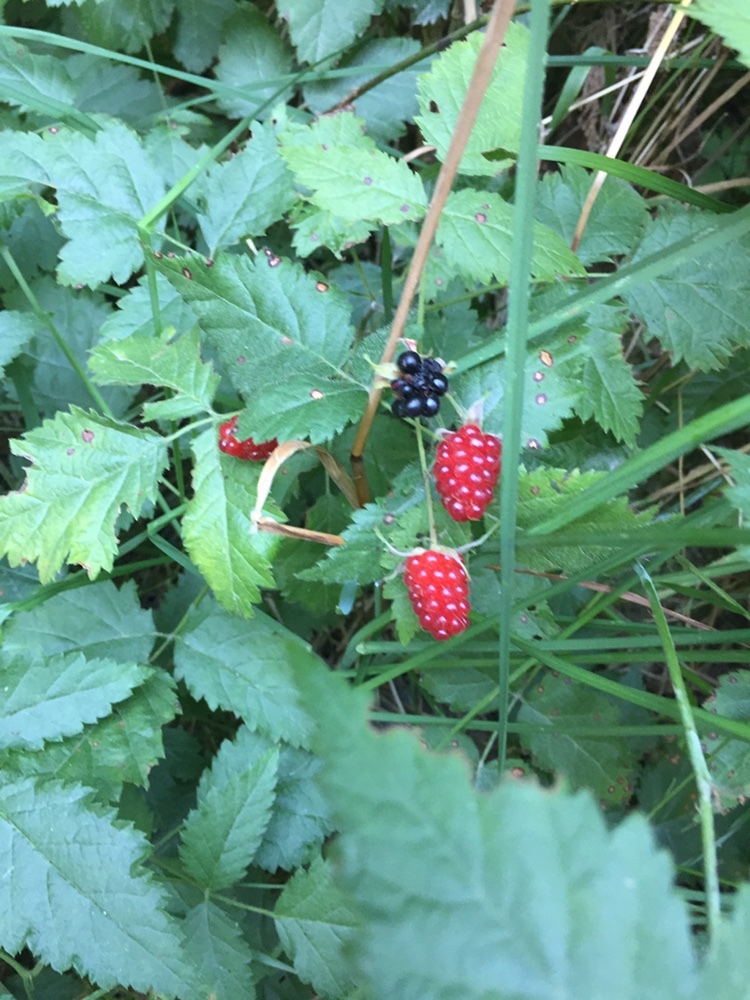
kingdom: Plantae
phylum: Tracheophyta
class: Magnoliopsida
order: Rosales
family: Rosaceae
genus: Rubus
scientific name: Rubus ursinus
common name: Pacific blackberry
